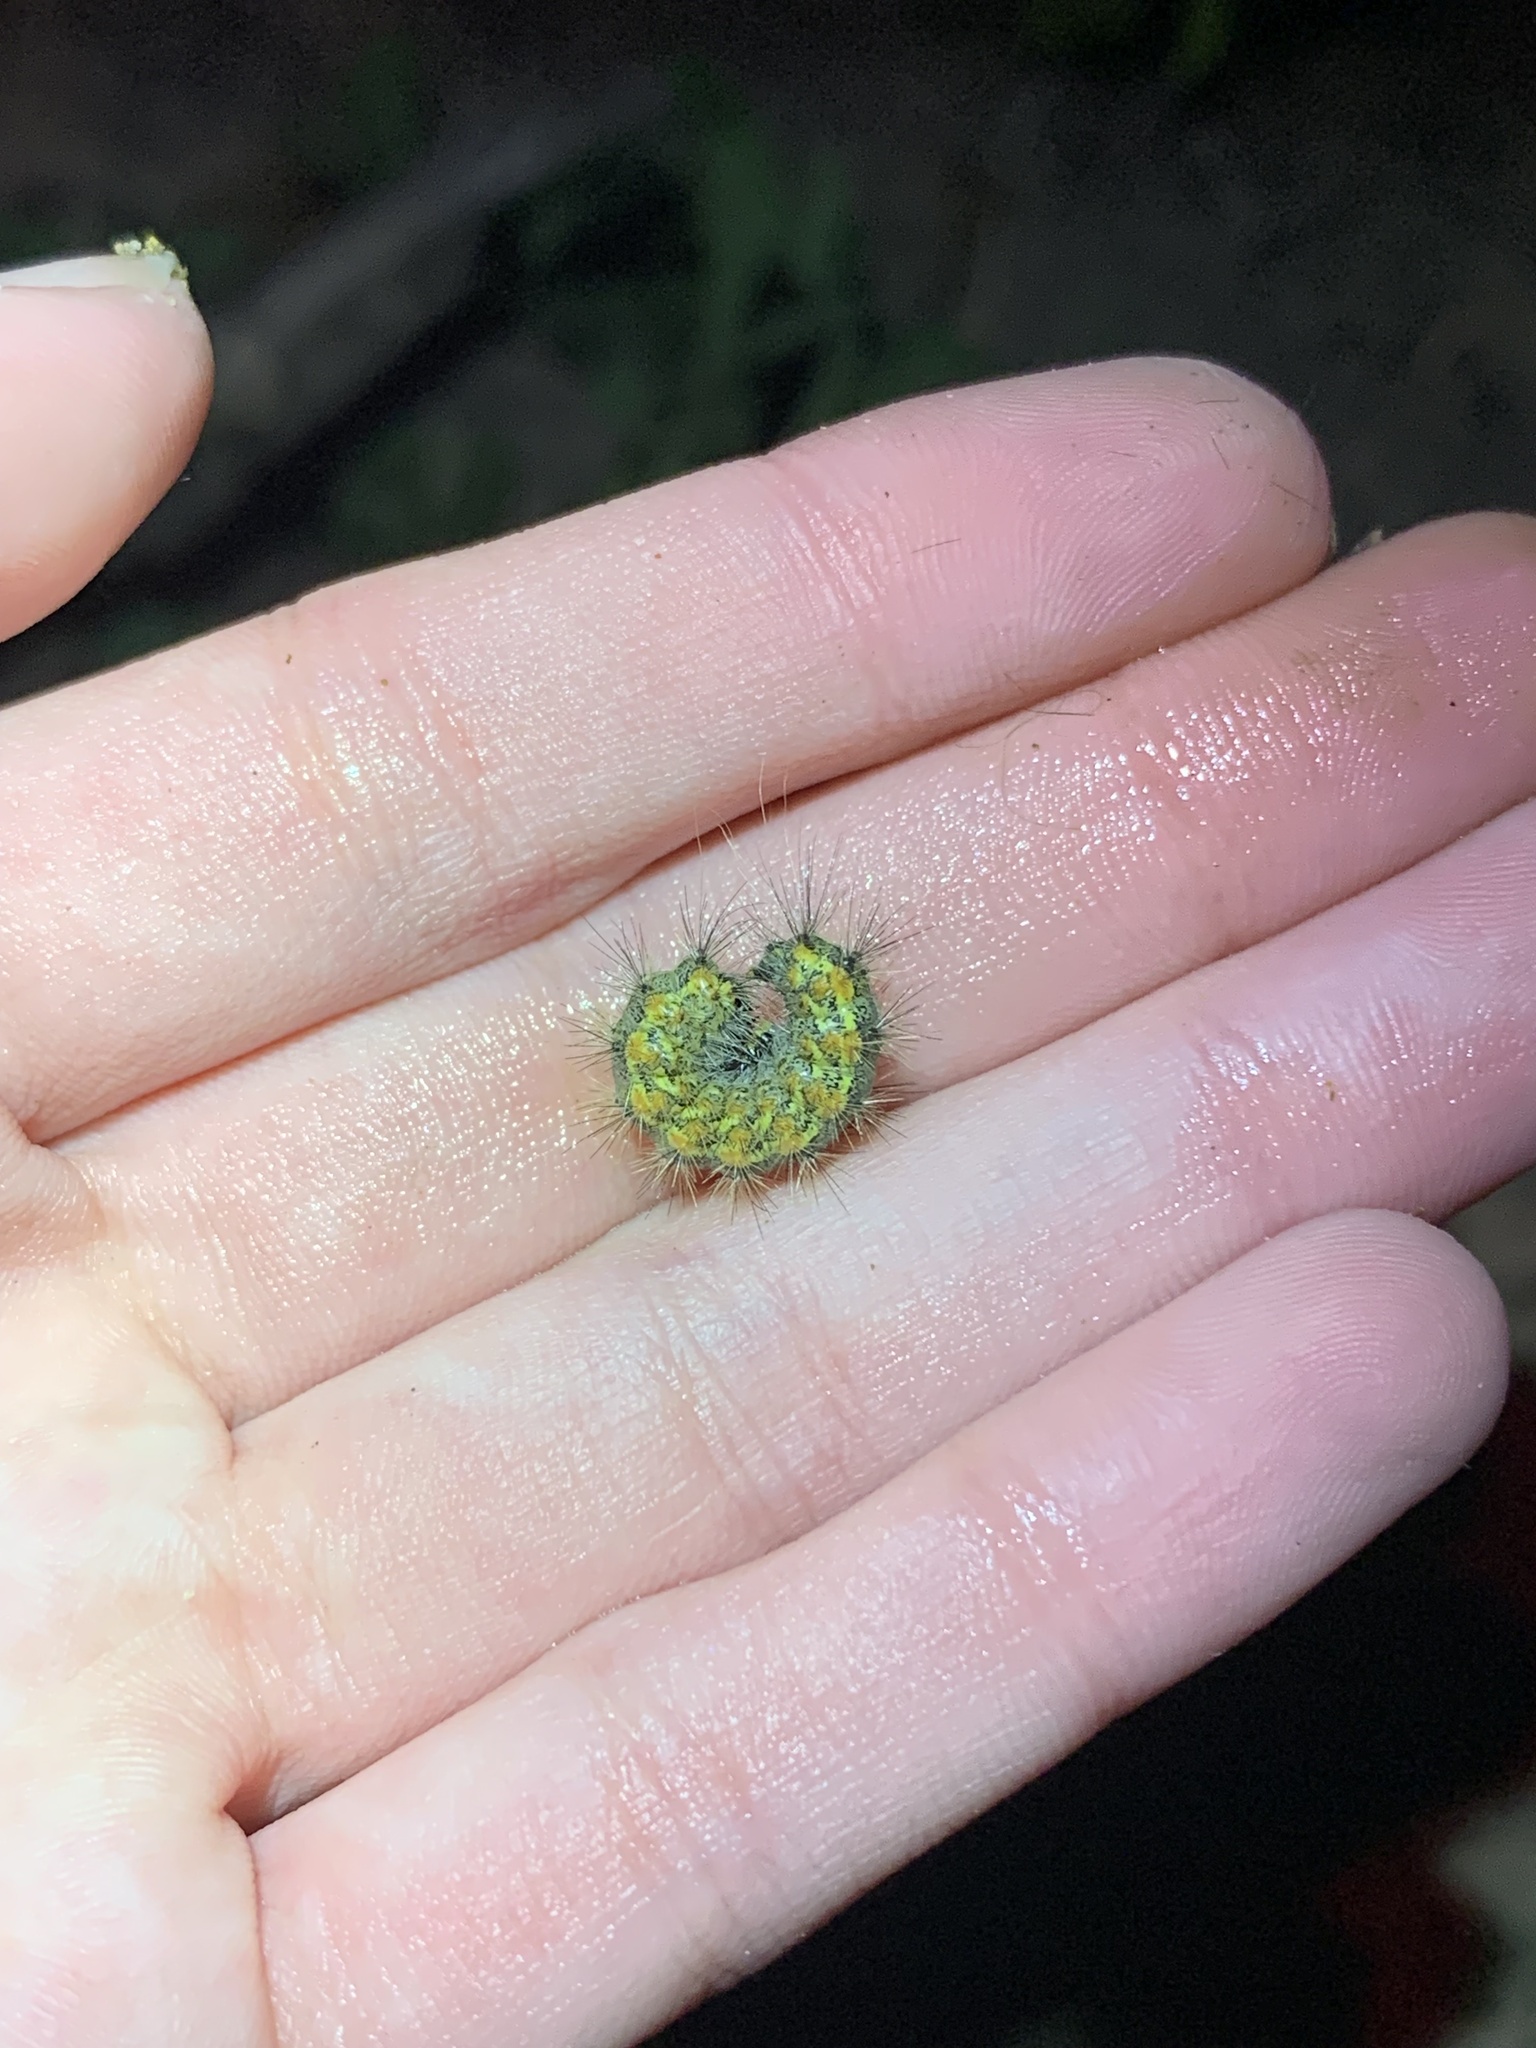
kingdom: Animalia
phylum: Arthropoda
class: Insecta
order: Lepidoptera
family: Erebidae
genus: Estigmene
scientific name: Estigmene acrea
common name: Salt marsh moth
